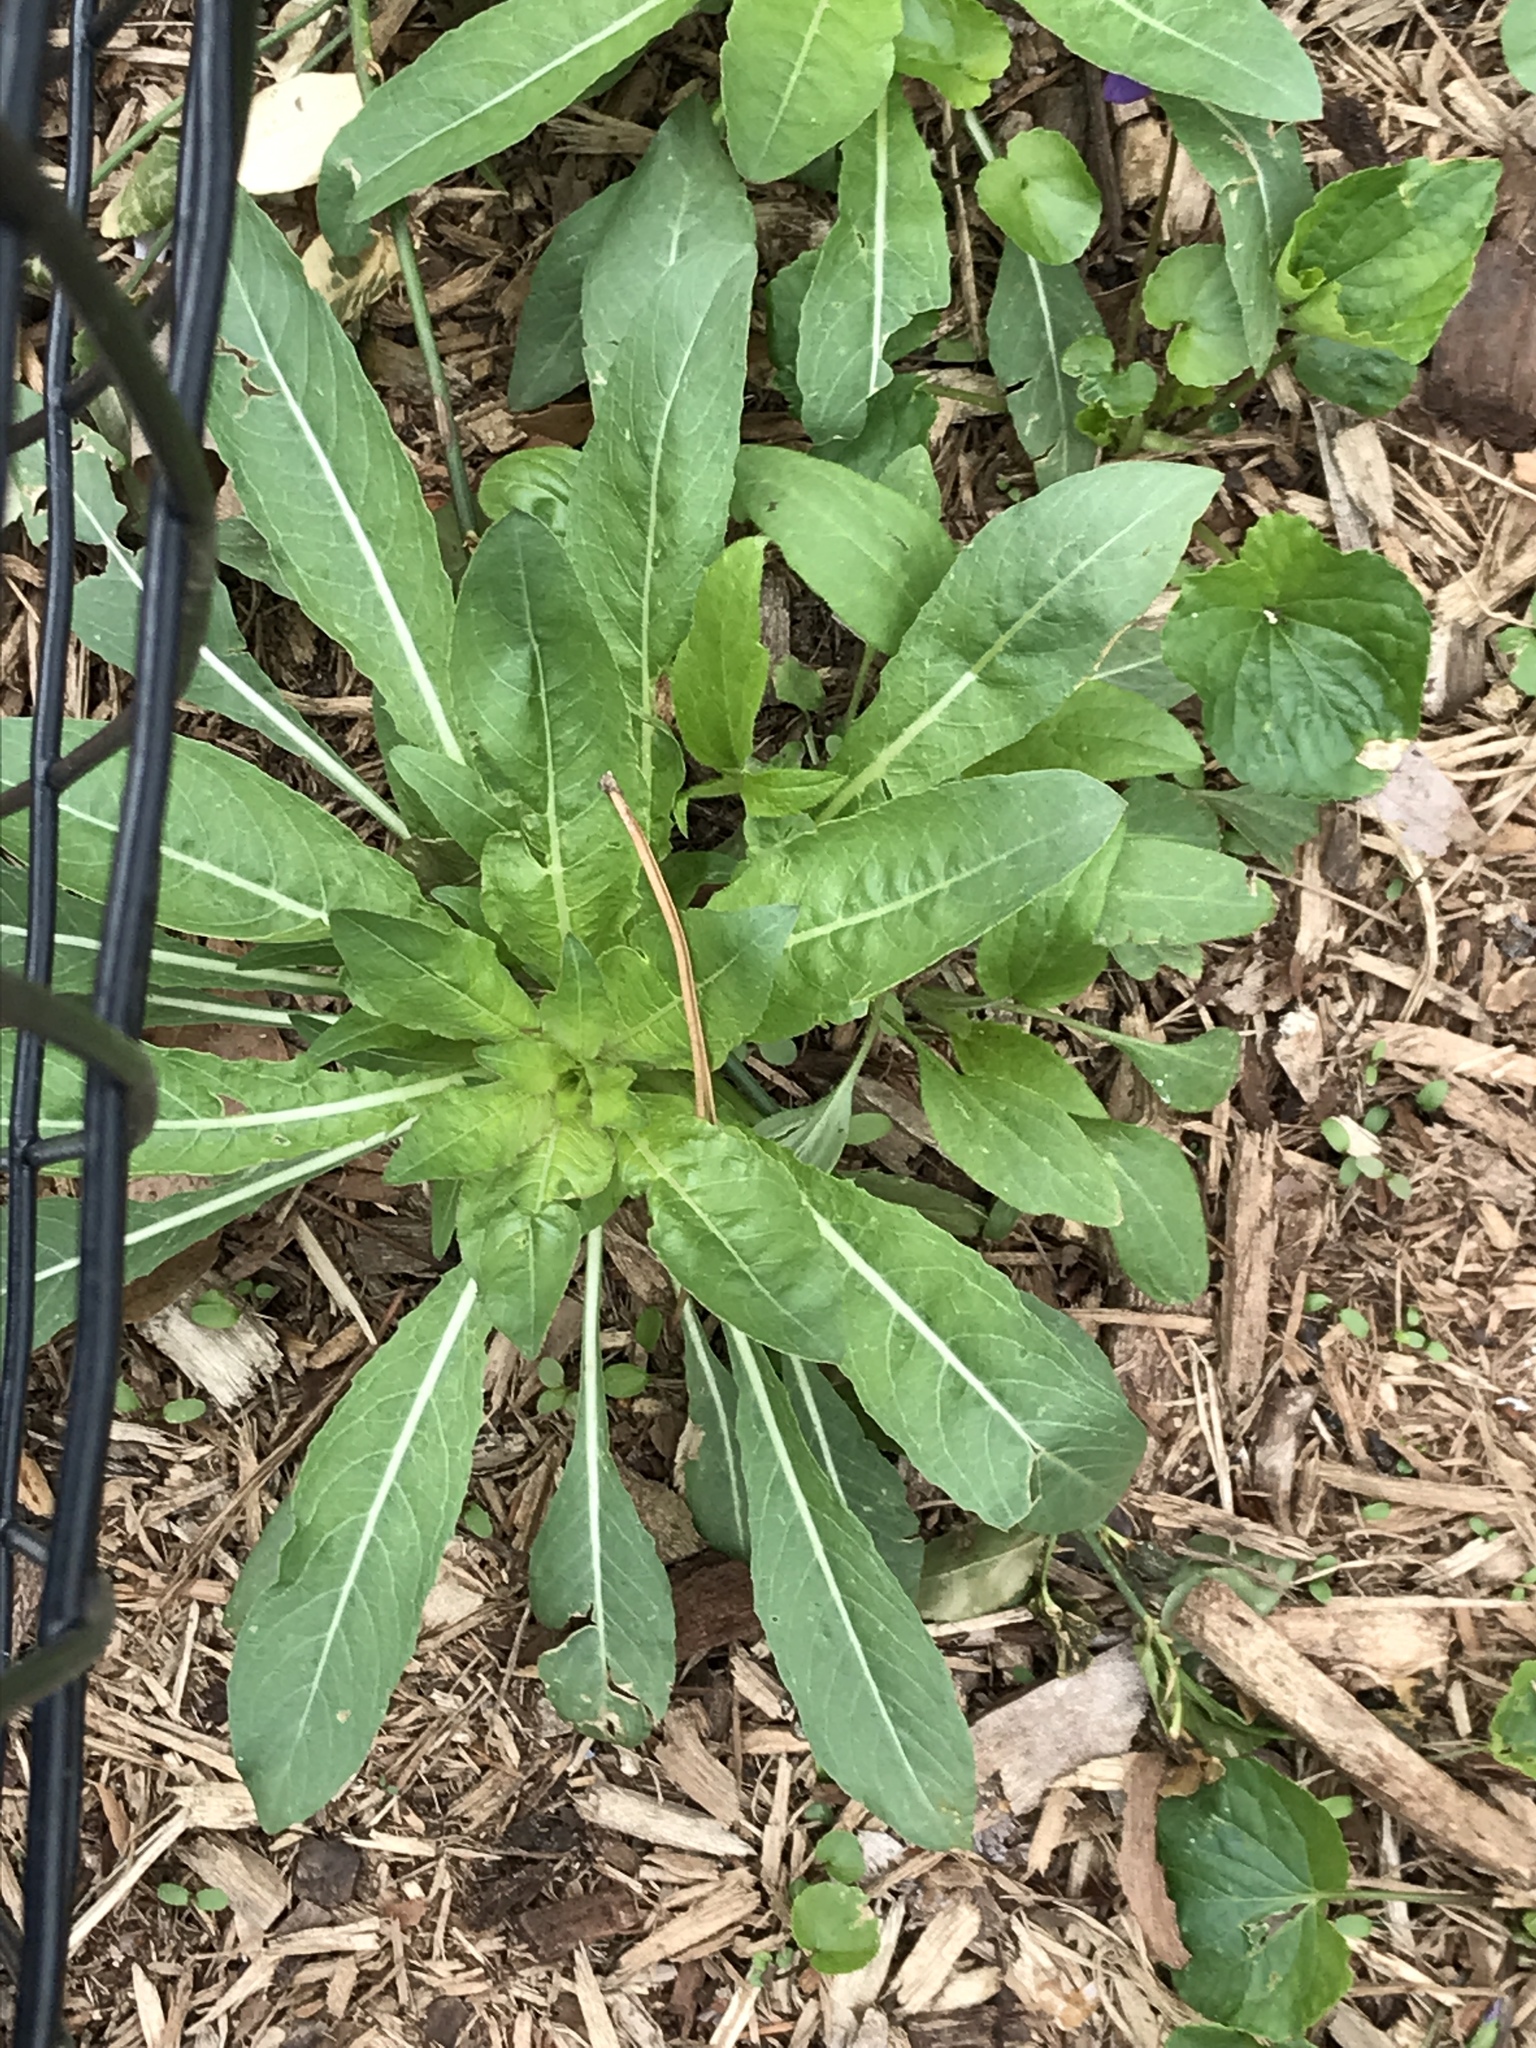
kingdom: Plantae
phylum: Tracheophyta
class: Magnoliopsida
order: Myrtales
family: Onagraceae
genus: Oenothera
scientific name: Oenothera biennis
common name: Common evening-primrose
